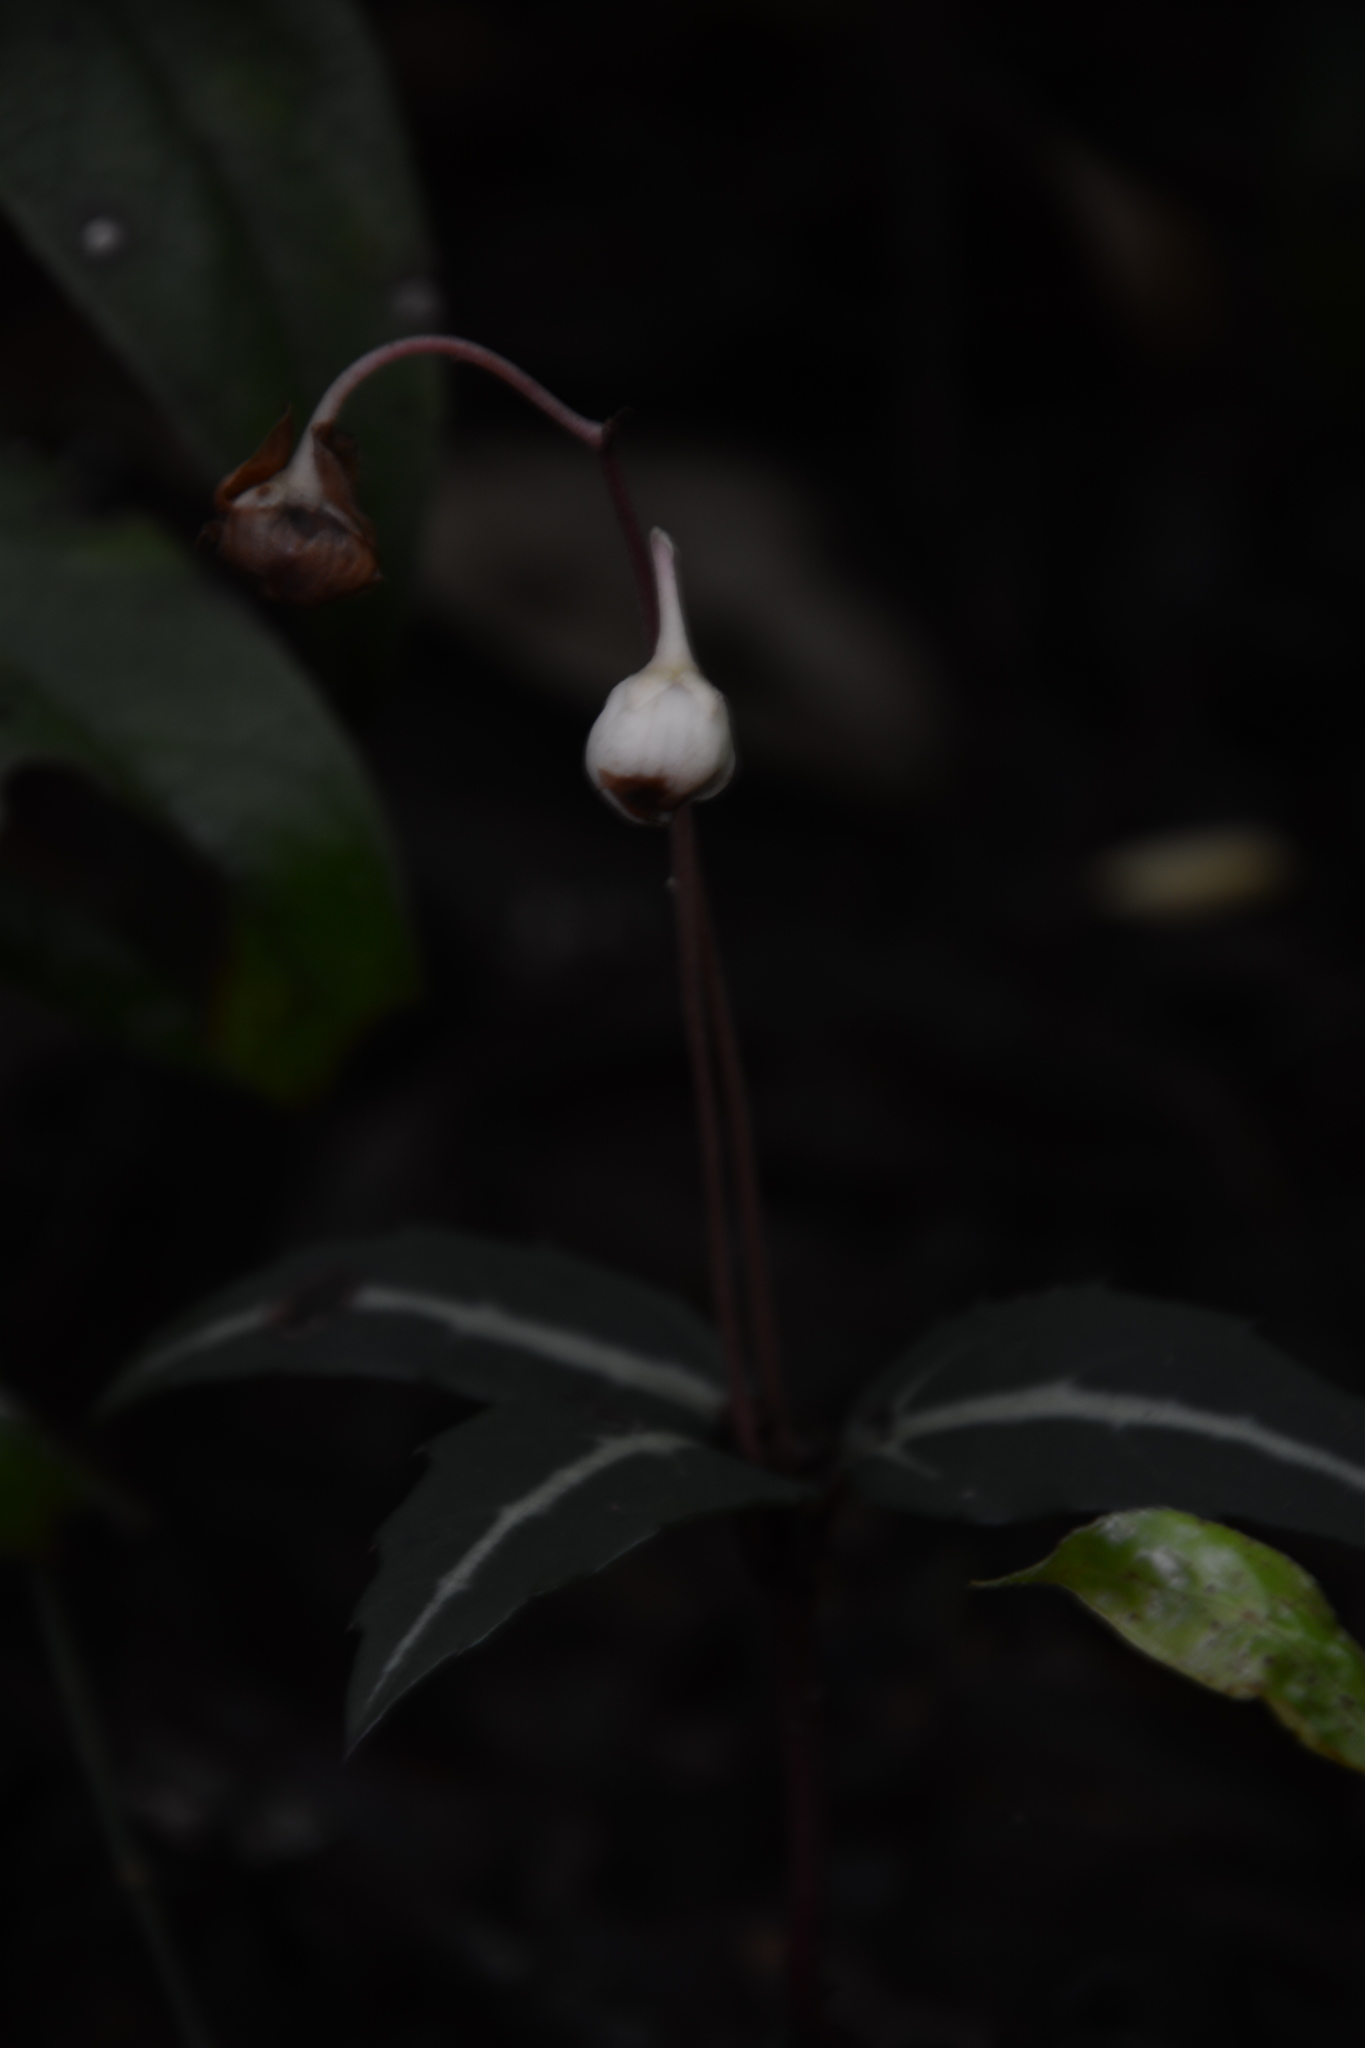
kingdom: Plantae
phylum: Tracheophyta
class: Magnoliopsida
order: Ericales
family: Ericaceae
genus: Chimaphila
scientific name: Chimaphila maculata
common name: Spotted pipsissewa
